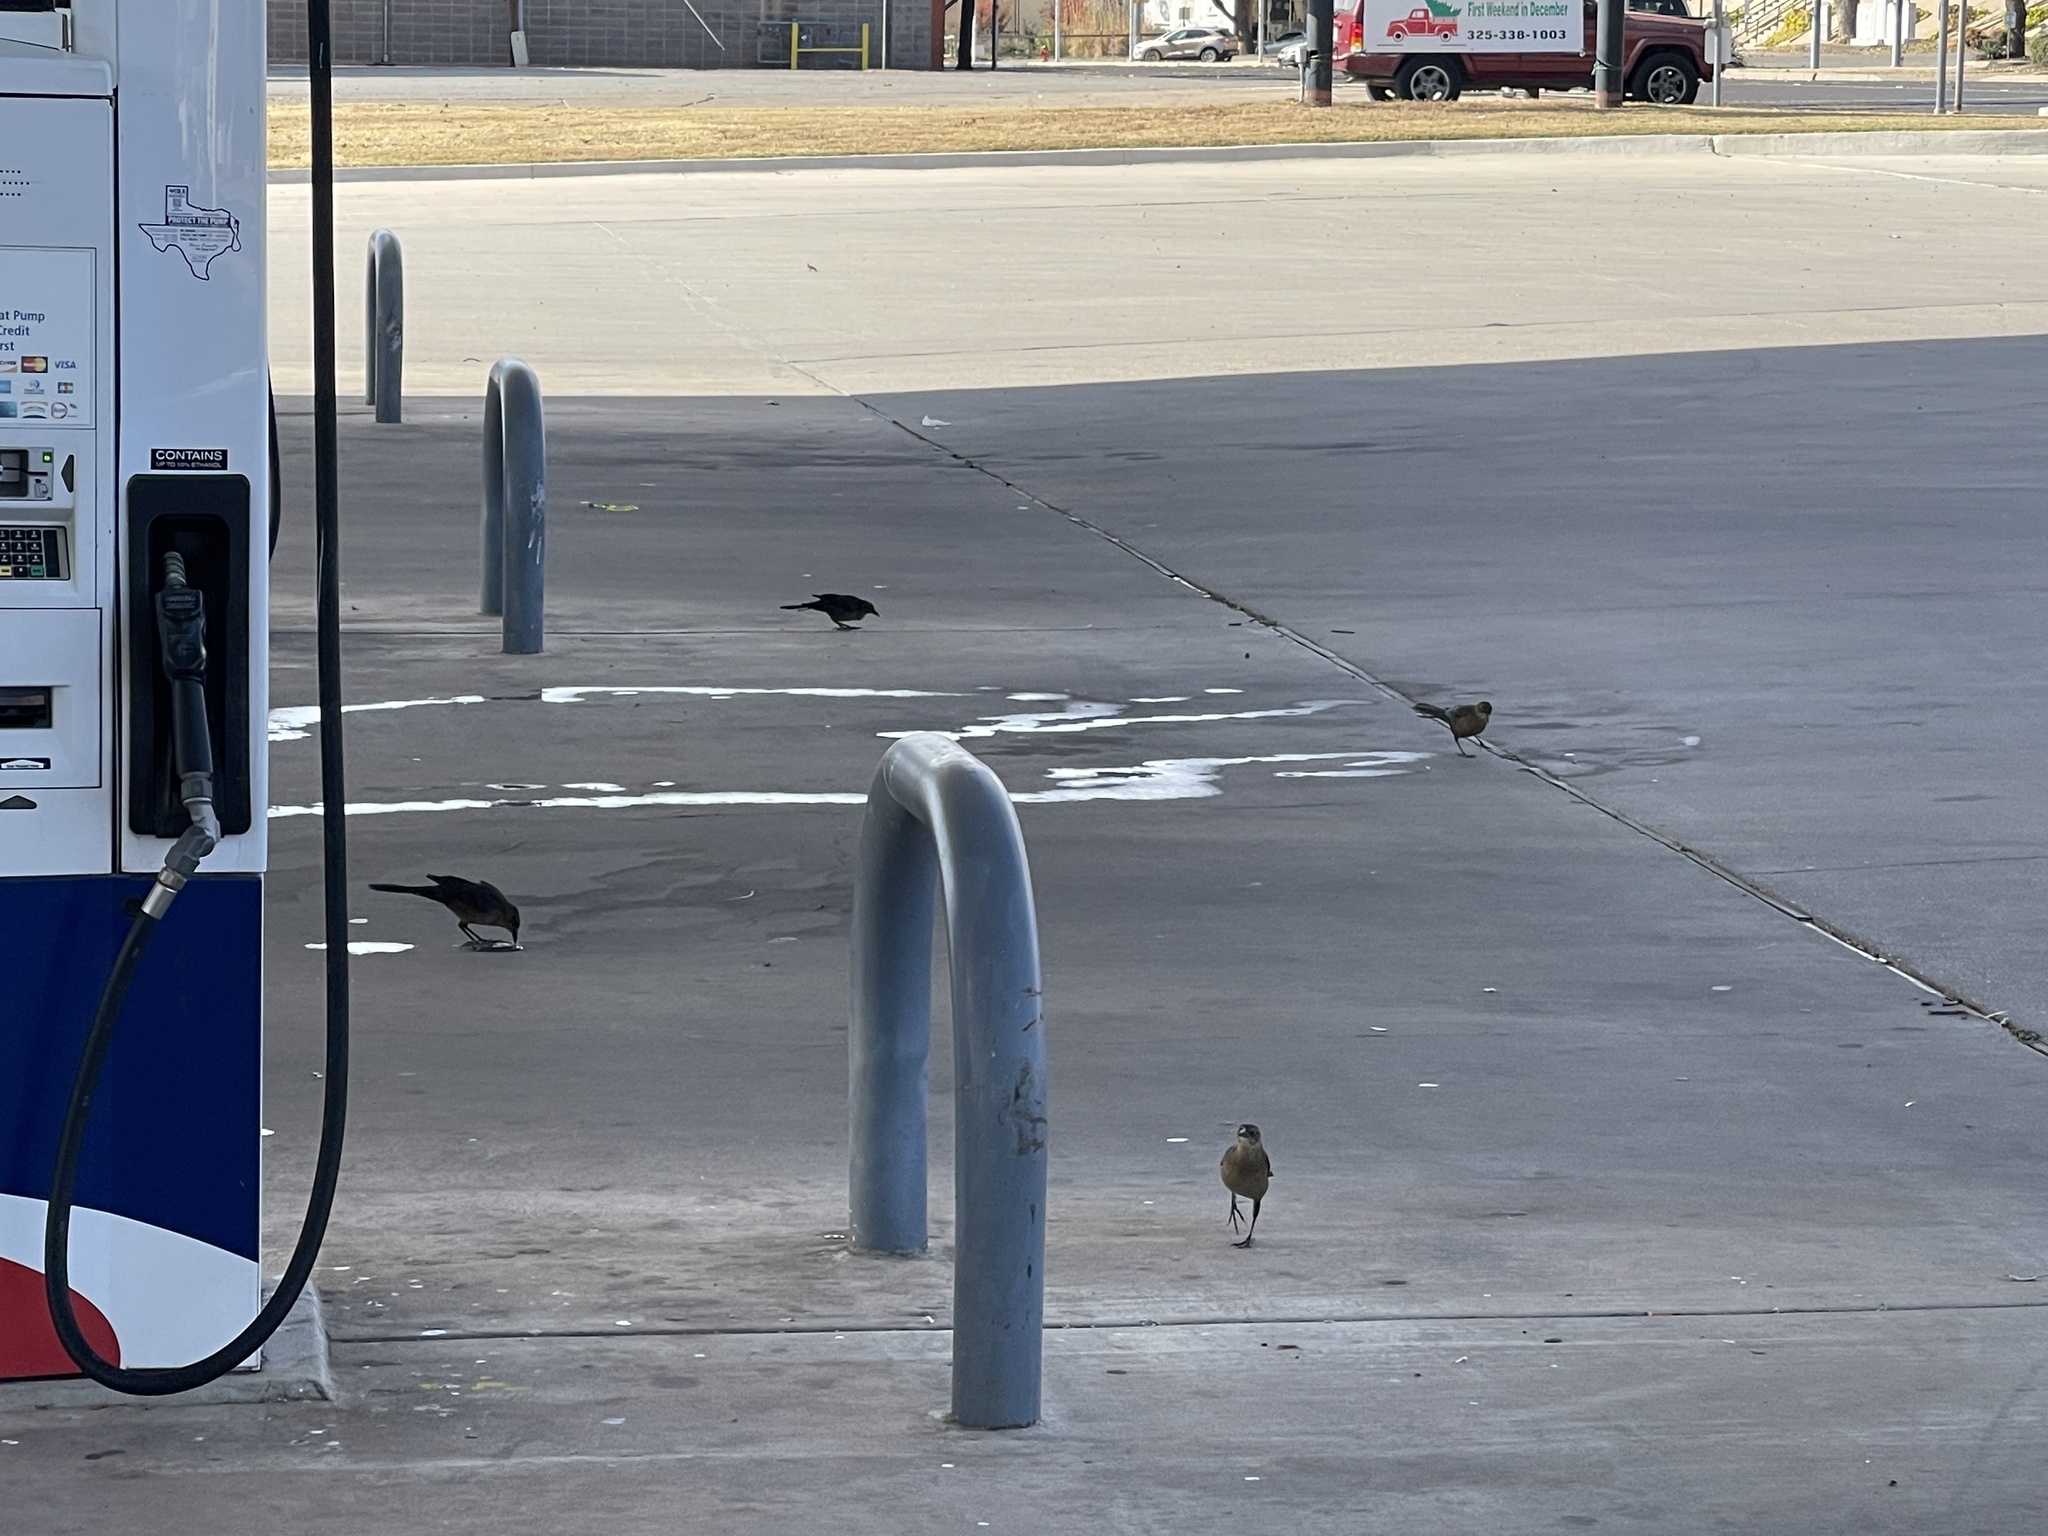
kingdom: Animalia
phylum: Chordata
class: Aves
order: Passeriformes
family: Icteridae
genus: Quiscalus
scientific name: Quiscalus mexicanus
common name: Great-tailed grackle
